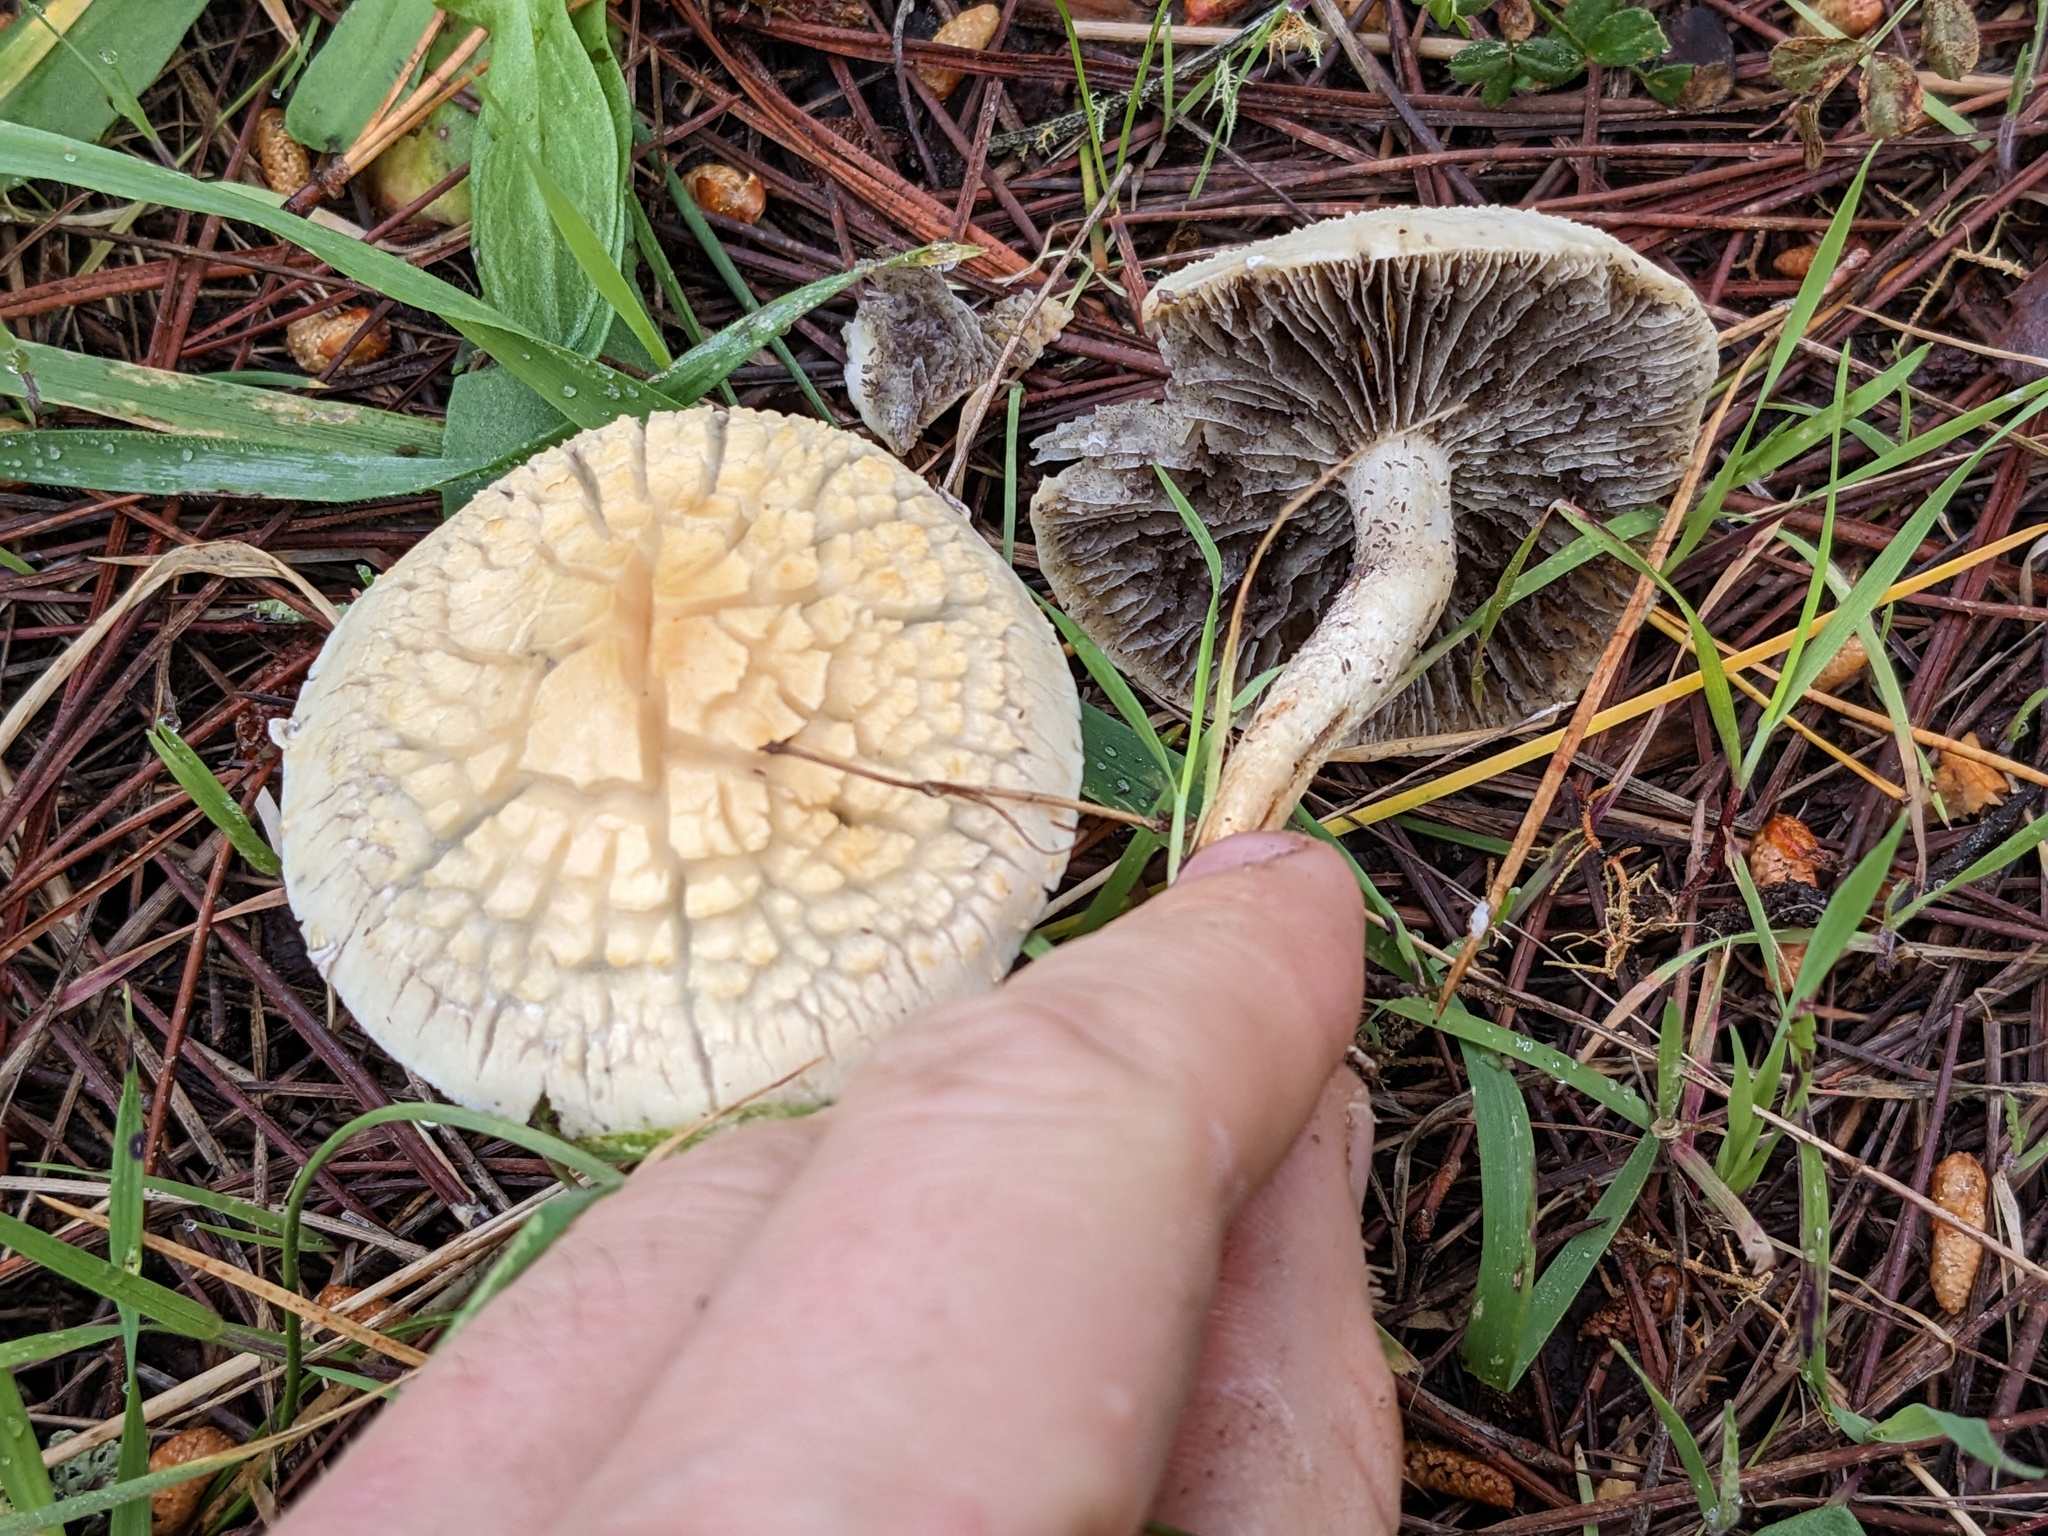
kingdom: Fungi
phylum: Basidiomycota
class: Agaricomycetes
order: Agaricales
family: Strophariaceae
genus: Leratiomyces
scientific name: Leratiomyces percevalii
